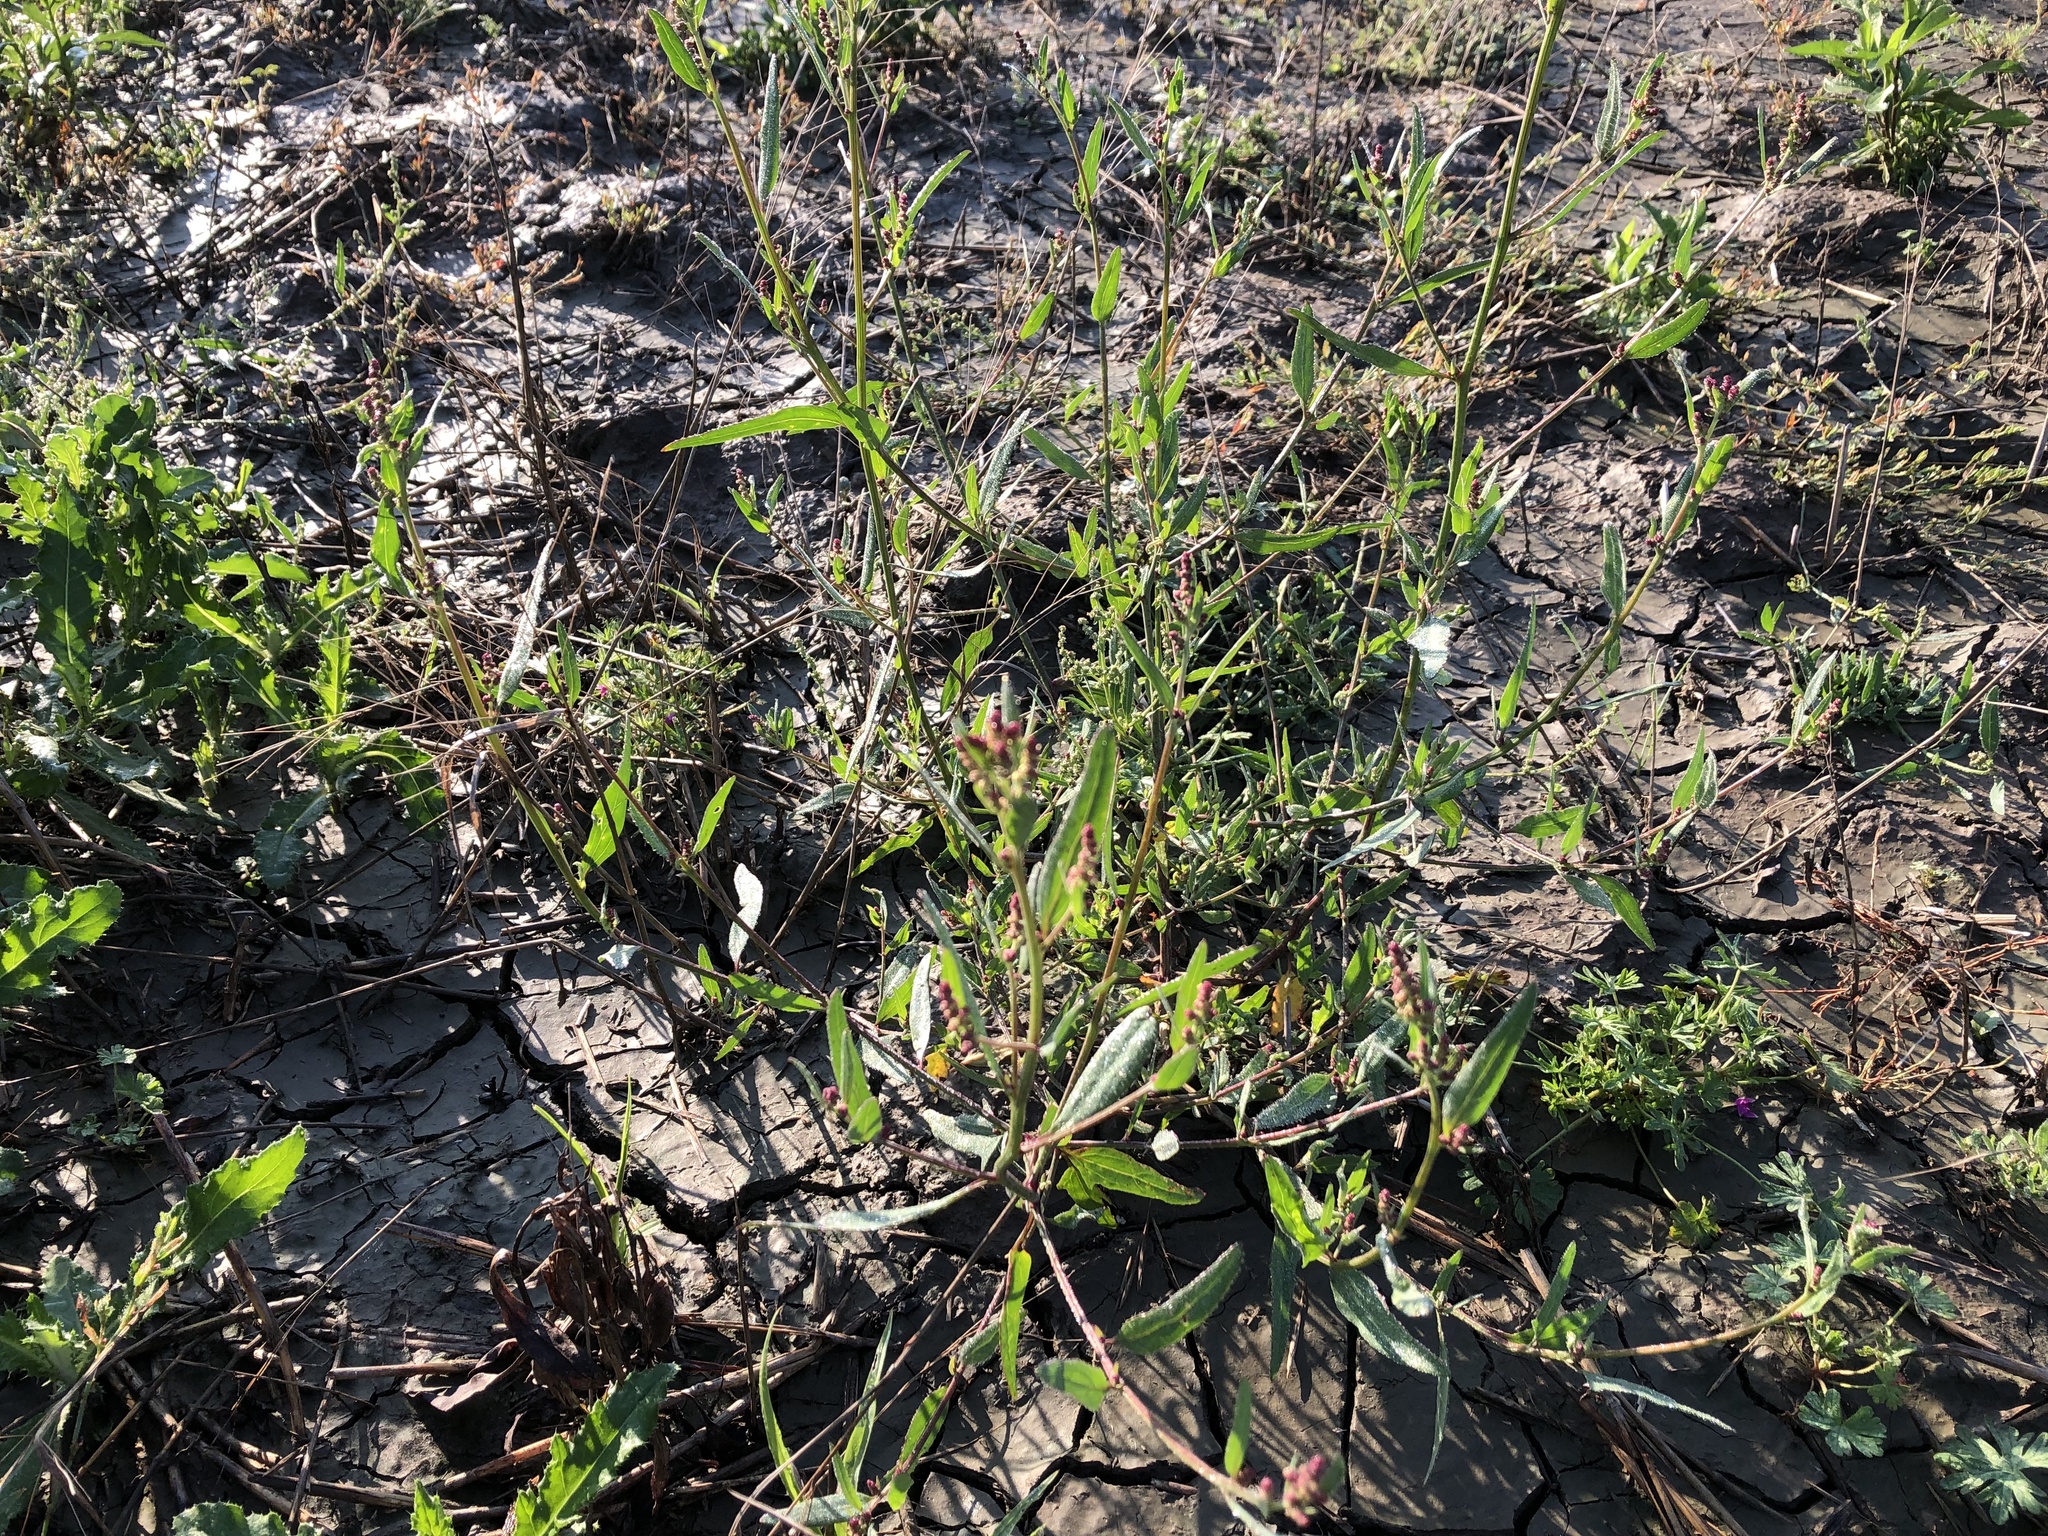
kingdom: Plantae
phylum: Tracheophyta
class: Magnoliopsida
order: Caryophyllales
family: Amaranthaceae
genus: Atriplex
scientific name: Atriplex patula
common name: Common orache
